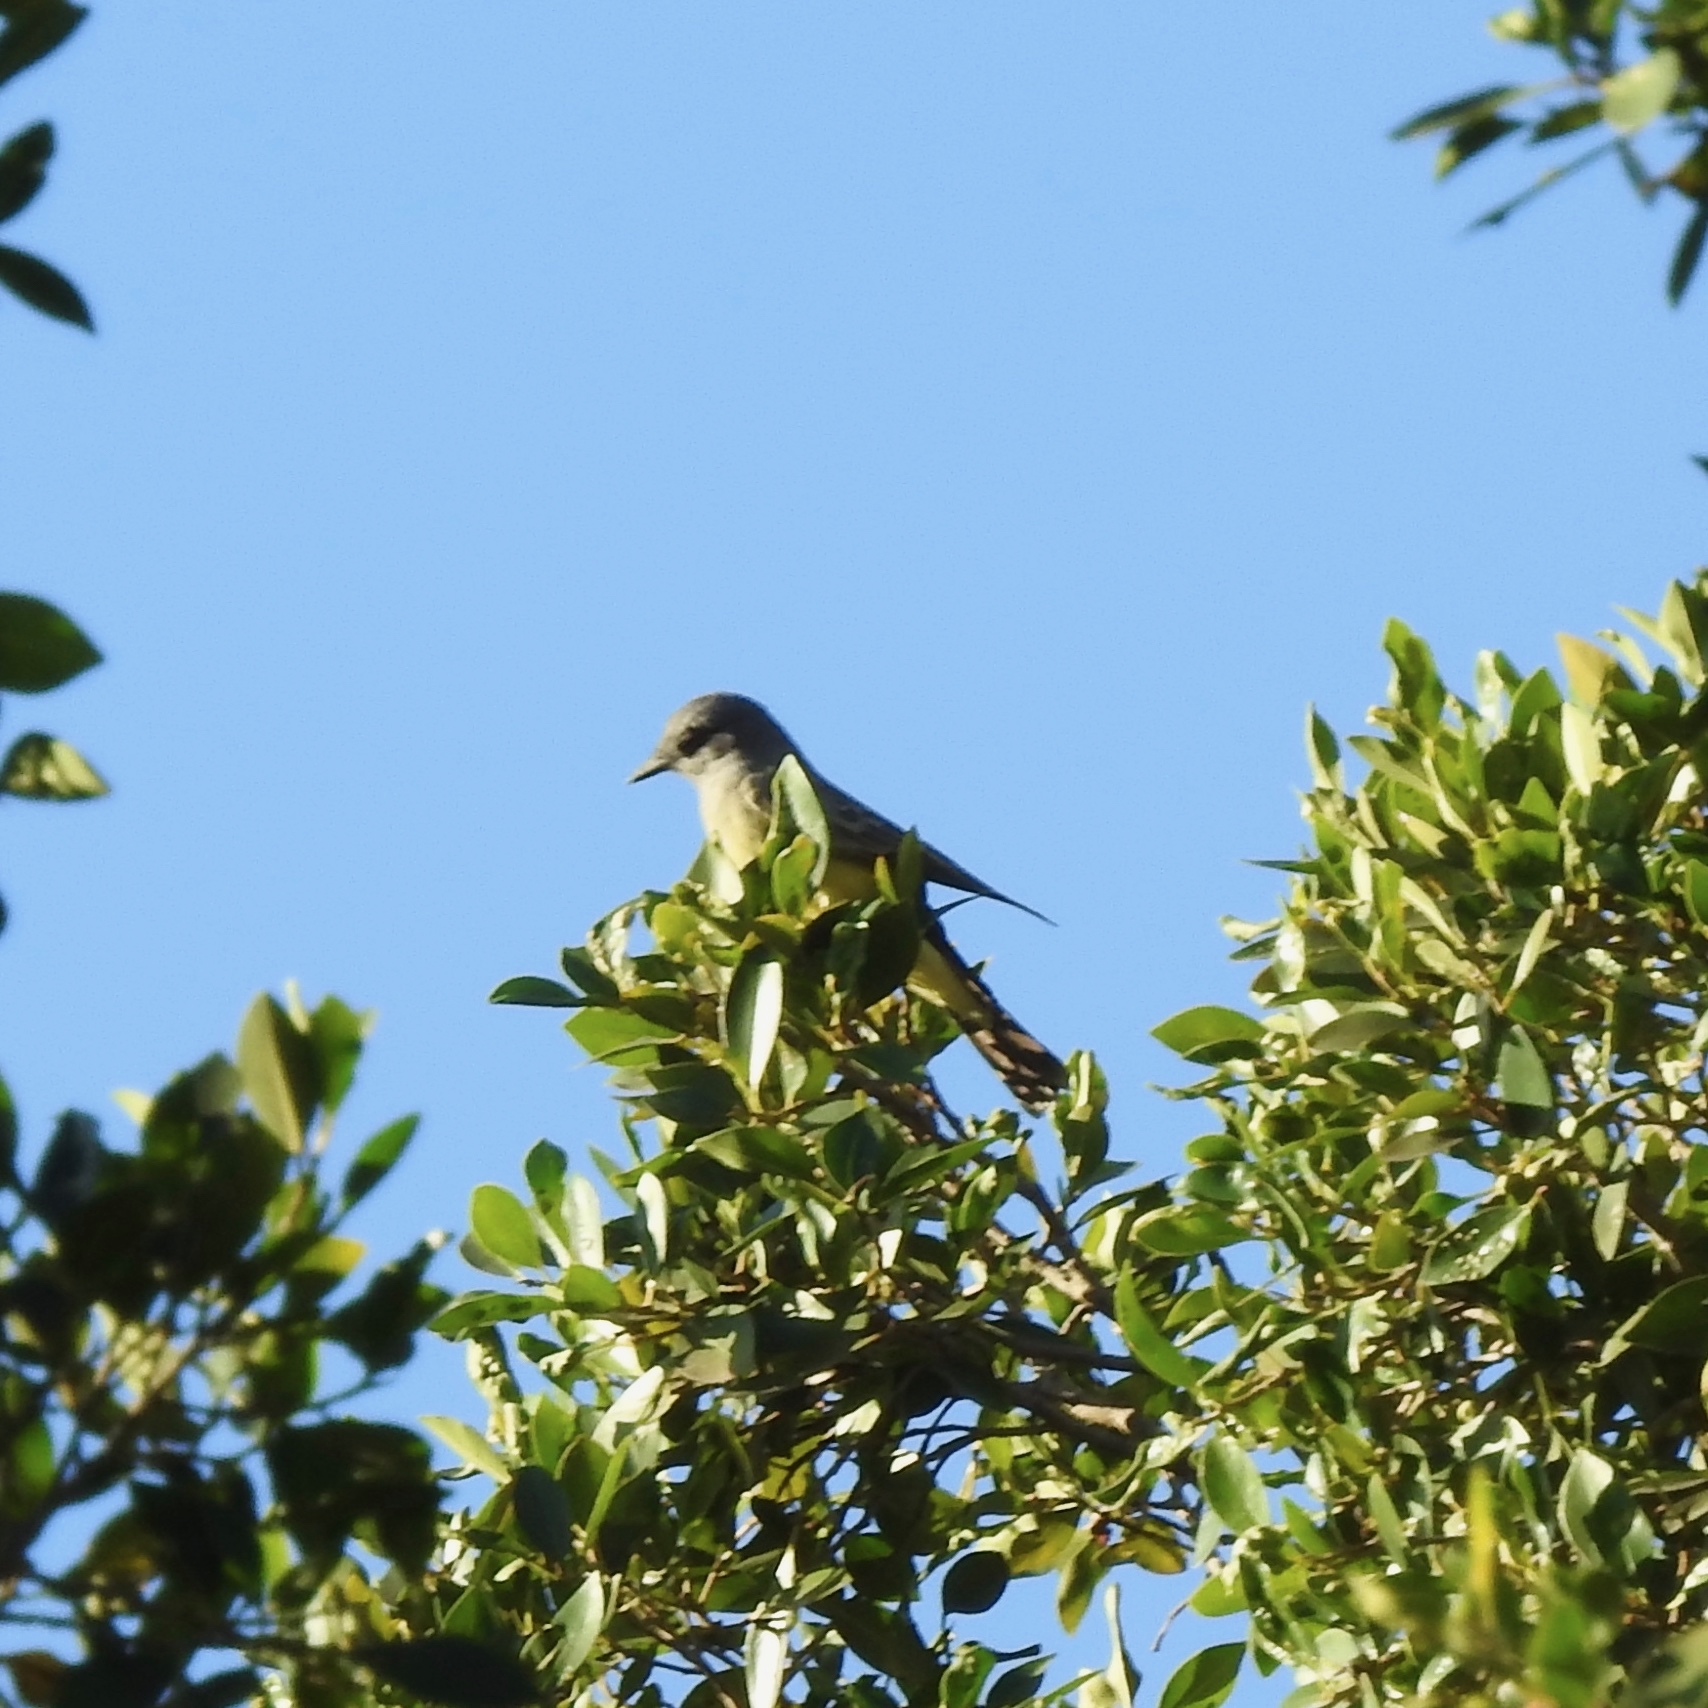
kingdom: Animalia
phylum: Chordata
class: Aves
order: Passeriformes
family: Tyrannidae
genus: Tyrannus
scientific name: Tyrannus vociferans
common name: Cassin's kingbird
